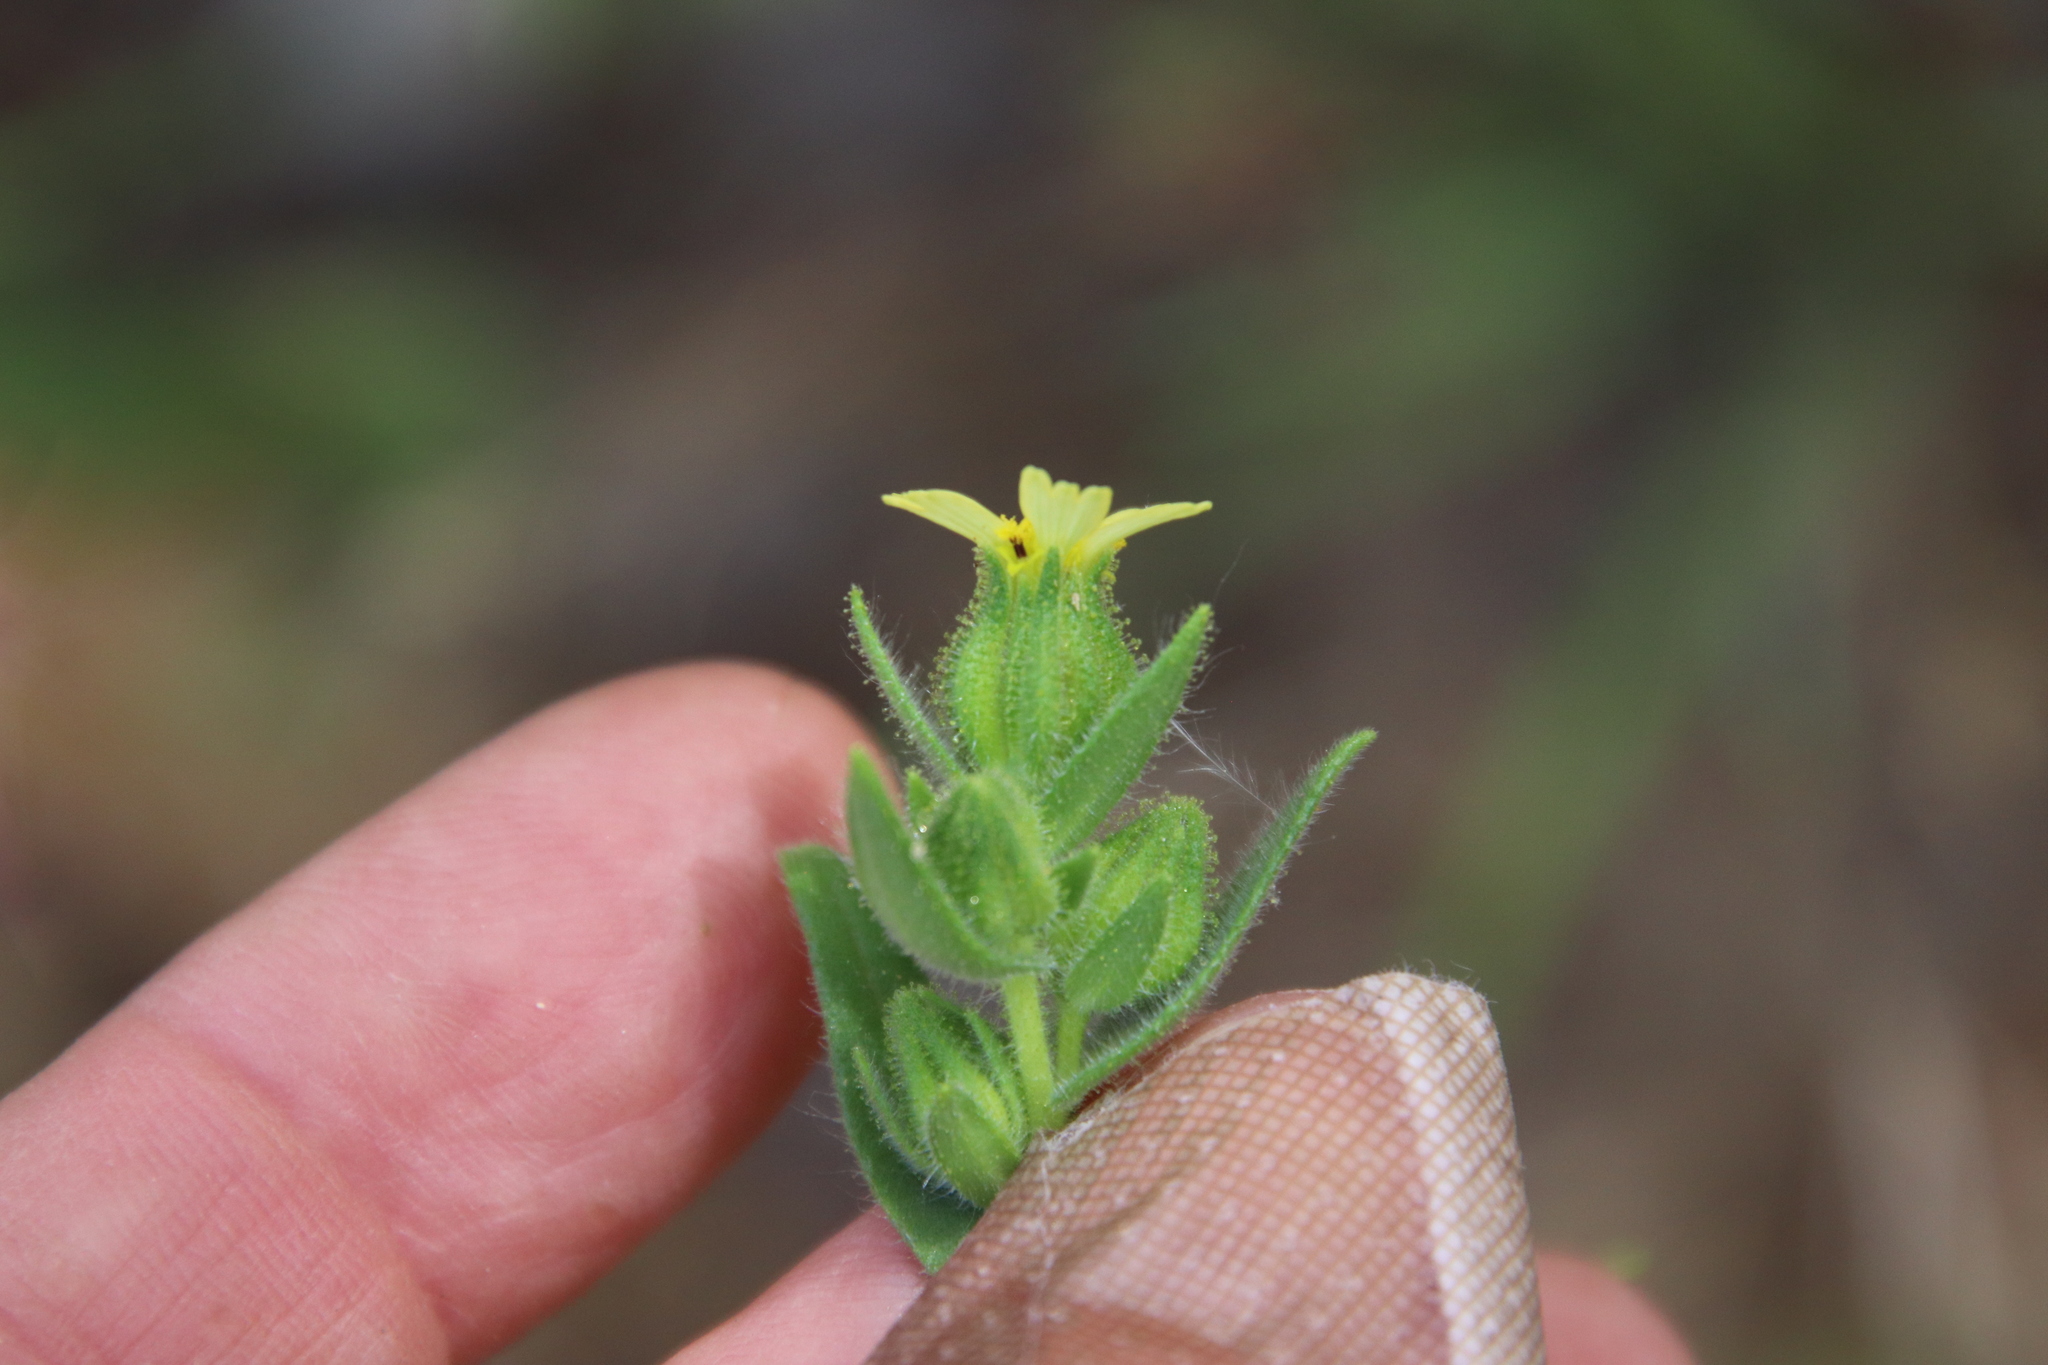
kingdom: Plantae
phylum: Tracheophyta
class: Magnoliopsida
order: Asterales
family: Asteraceae
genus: Madia
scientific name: Madia gracilis
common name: Grassy tarweed
